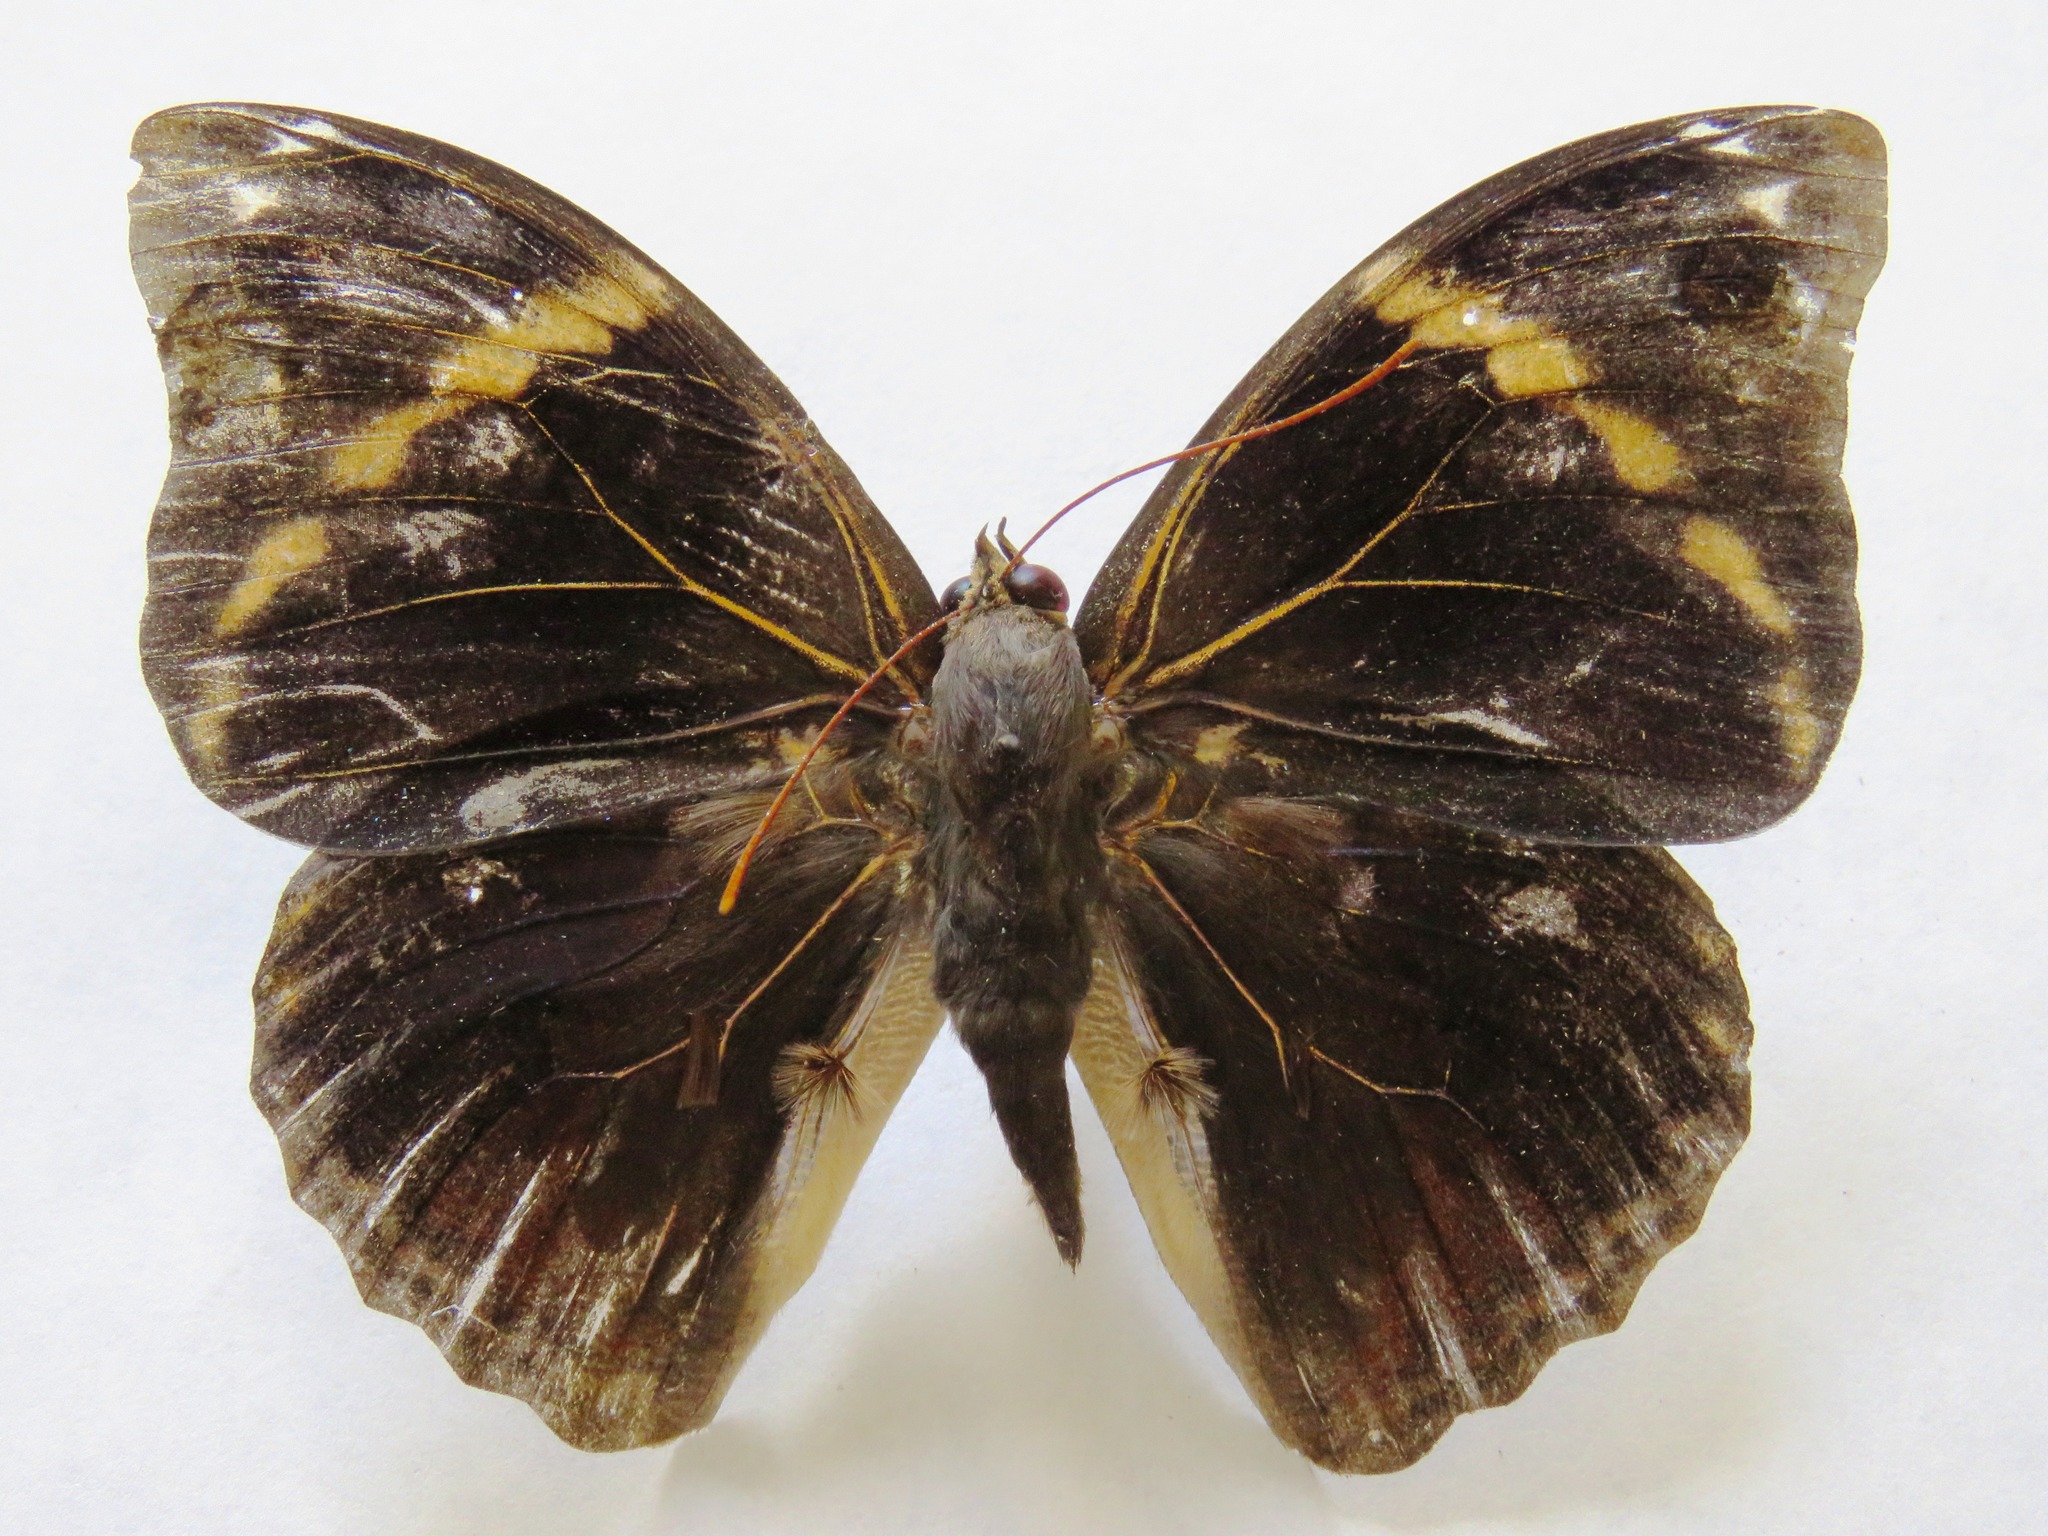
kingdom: Animalia
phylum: Arthropoda
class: Insecta
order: Lepidoptera
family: Nymphalidae
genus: Opsiphanes
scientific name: Opsiphanes cassiae
